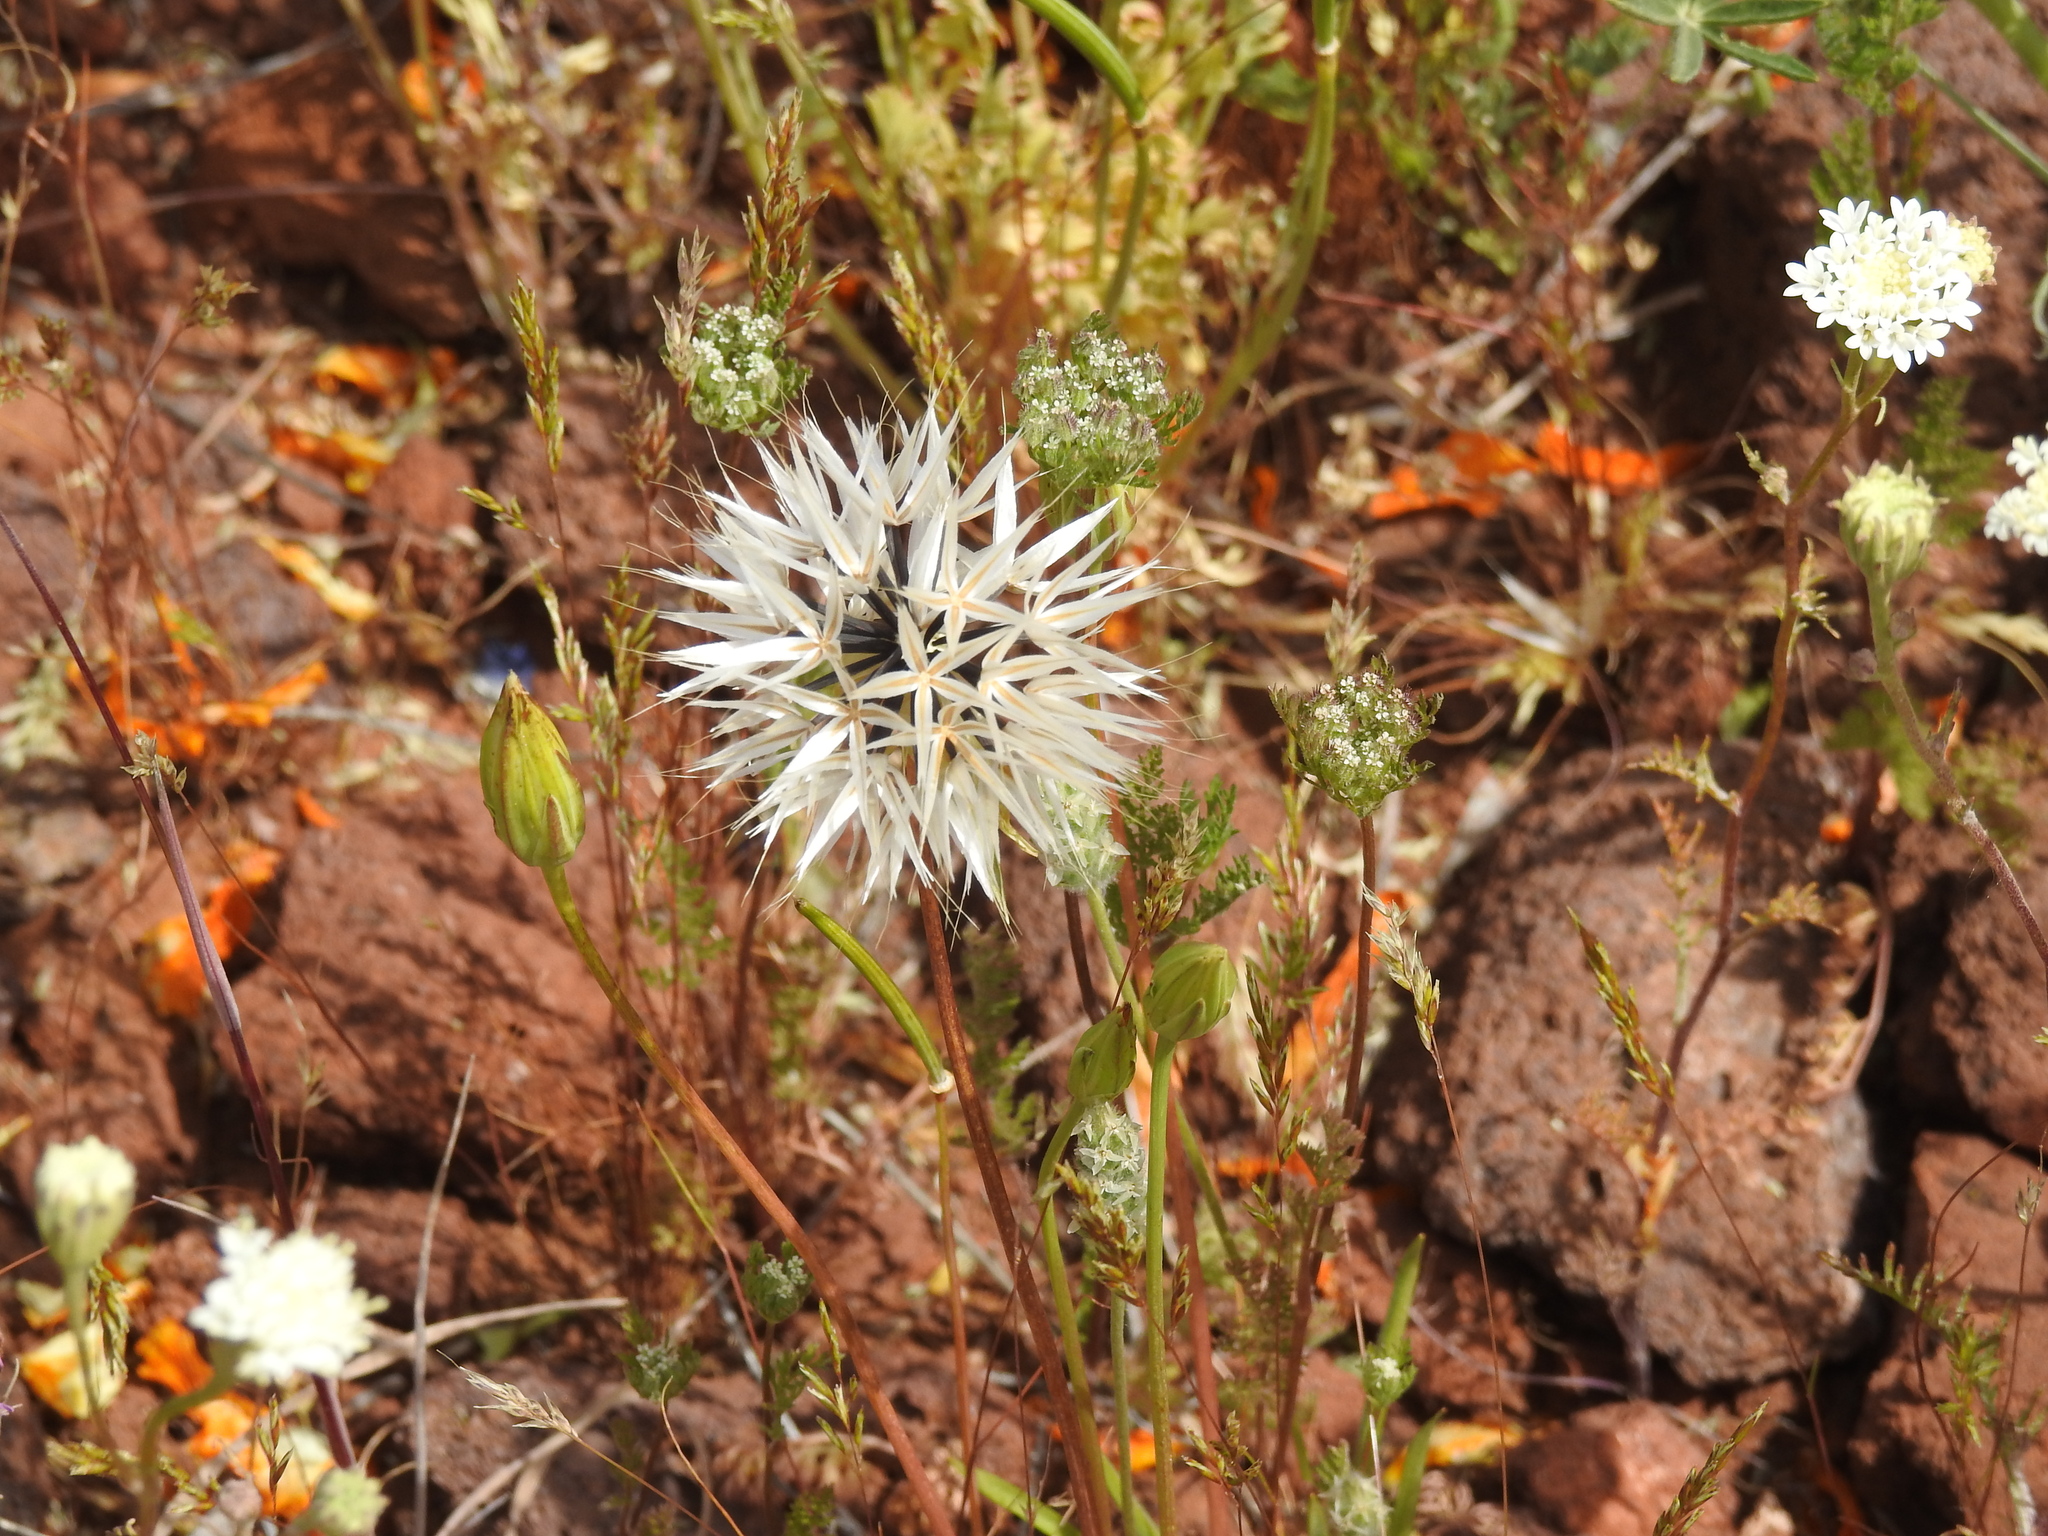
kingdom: Plantae
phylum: Tracheophyta
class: Magnoliopsida
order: Asterales
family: Asteraceae
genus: Microseris
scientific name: Microseris lindleyi
